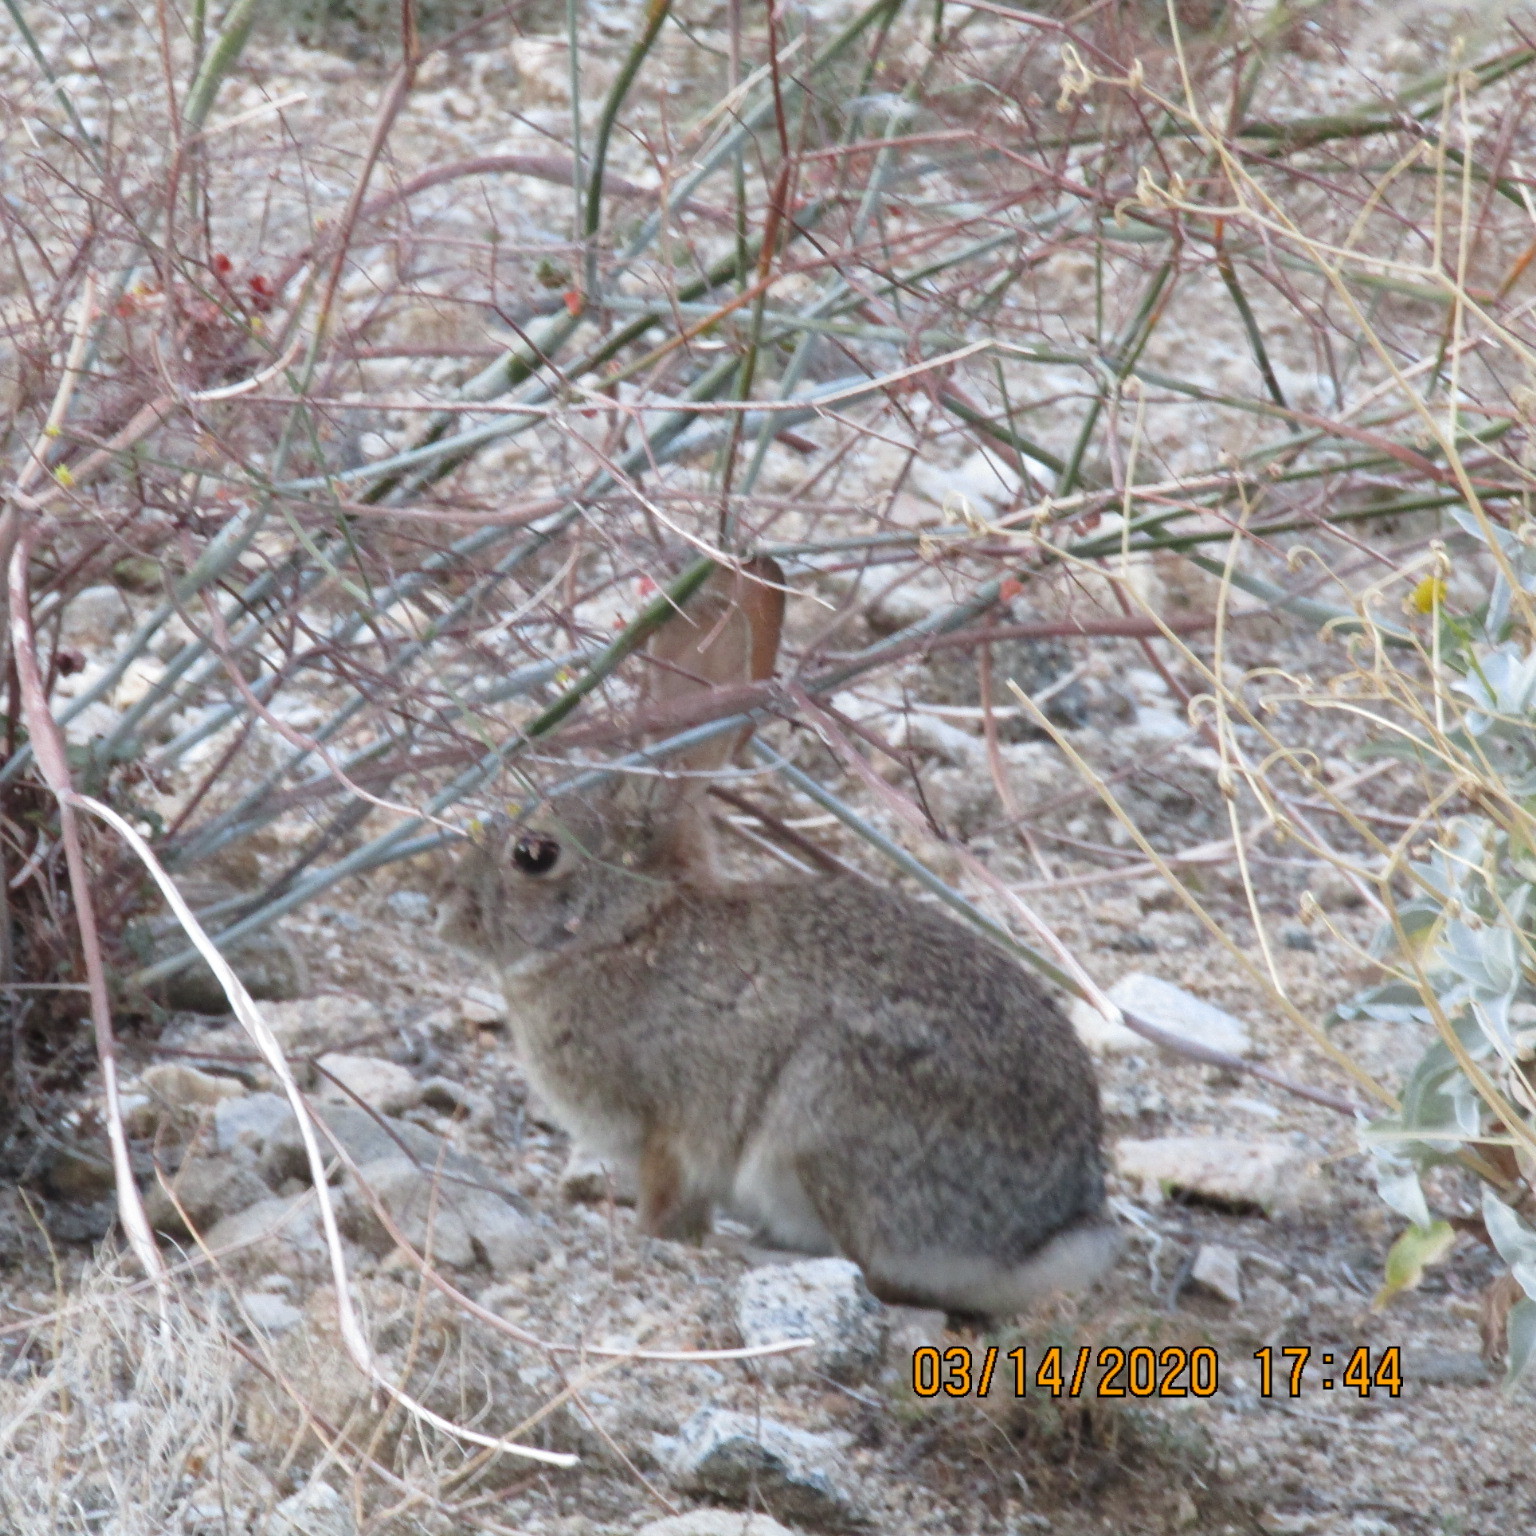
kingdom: Animalia
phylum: Chordata
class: Mammalia
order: Lagomorpha
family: Leporidae
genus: Sylvilagus
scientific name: Sylvilagus audubonii
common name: Desert cottontail
